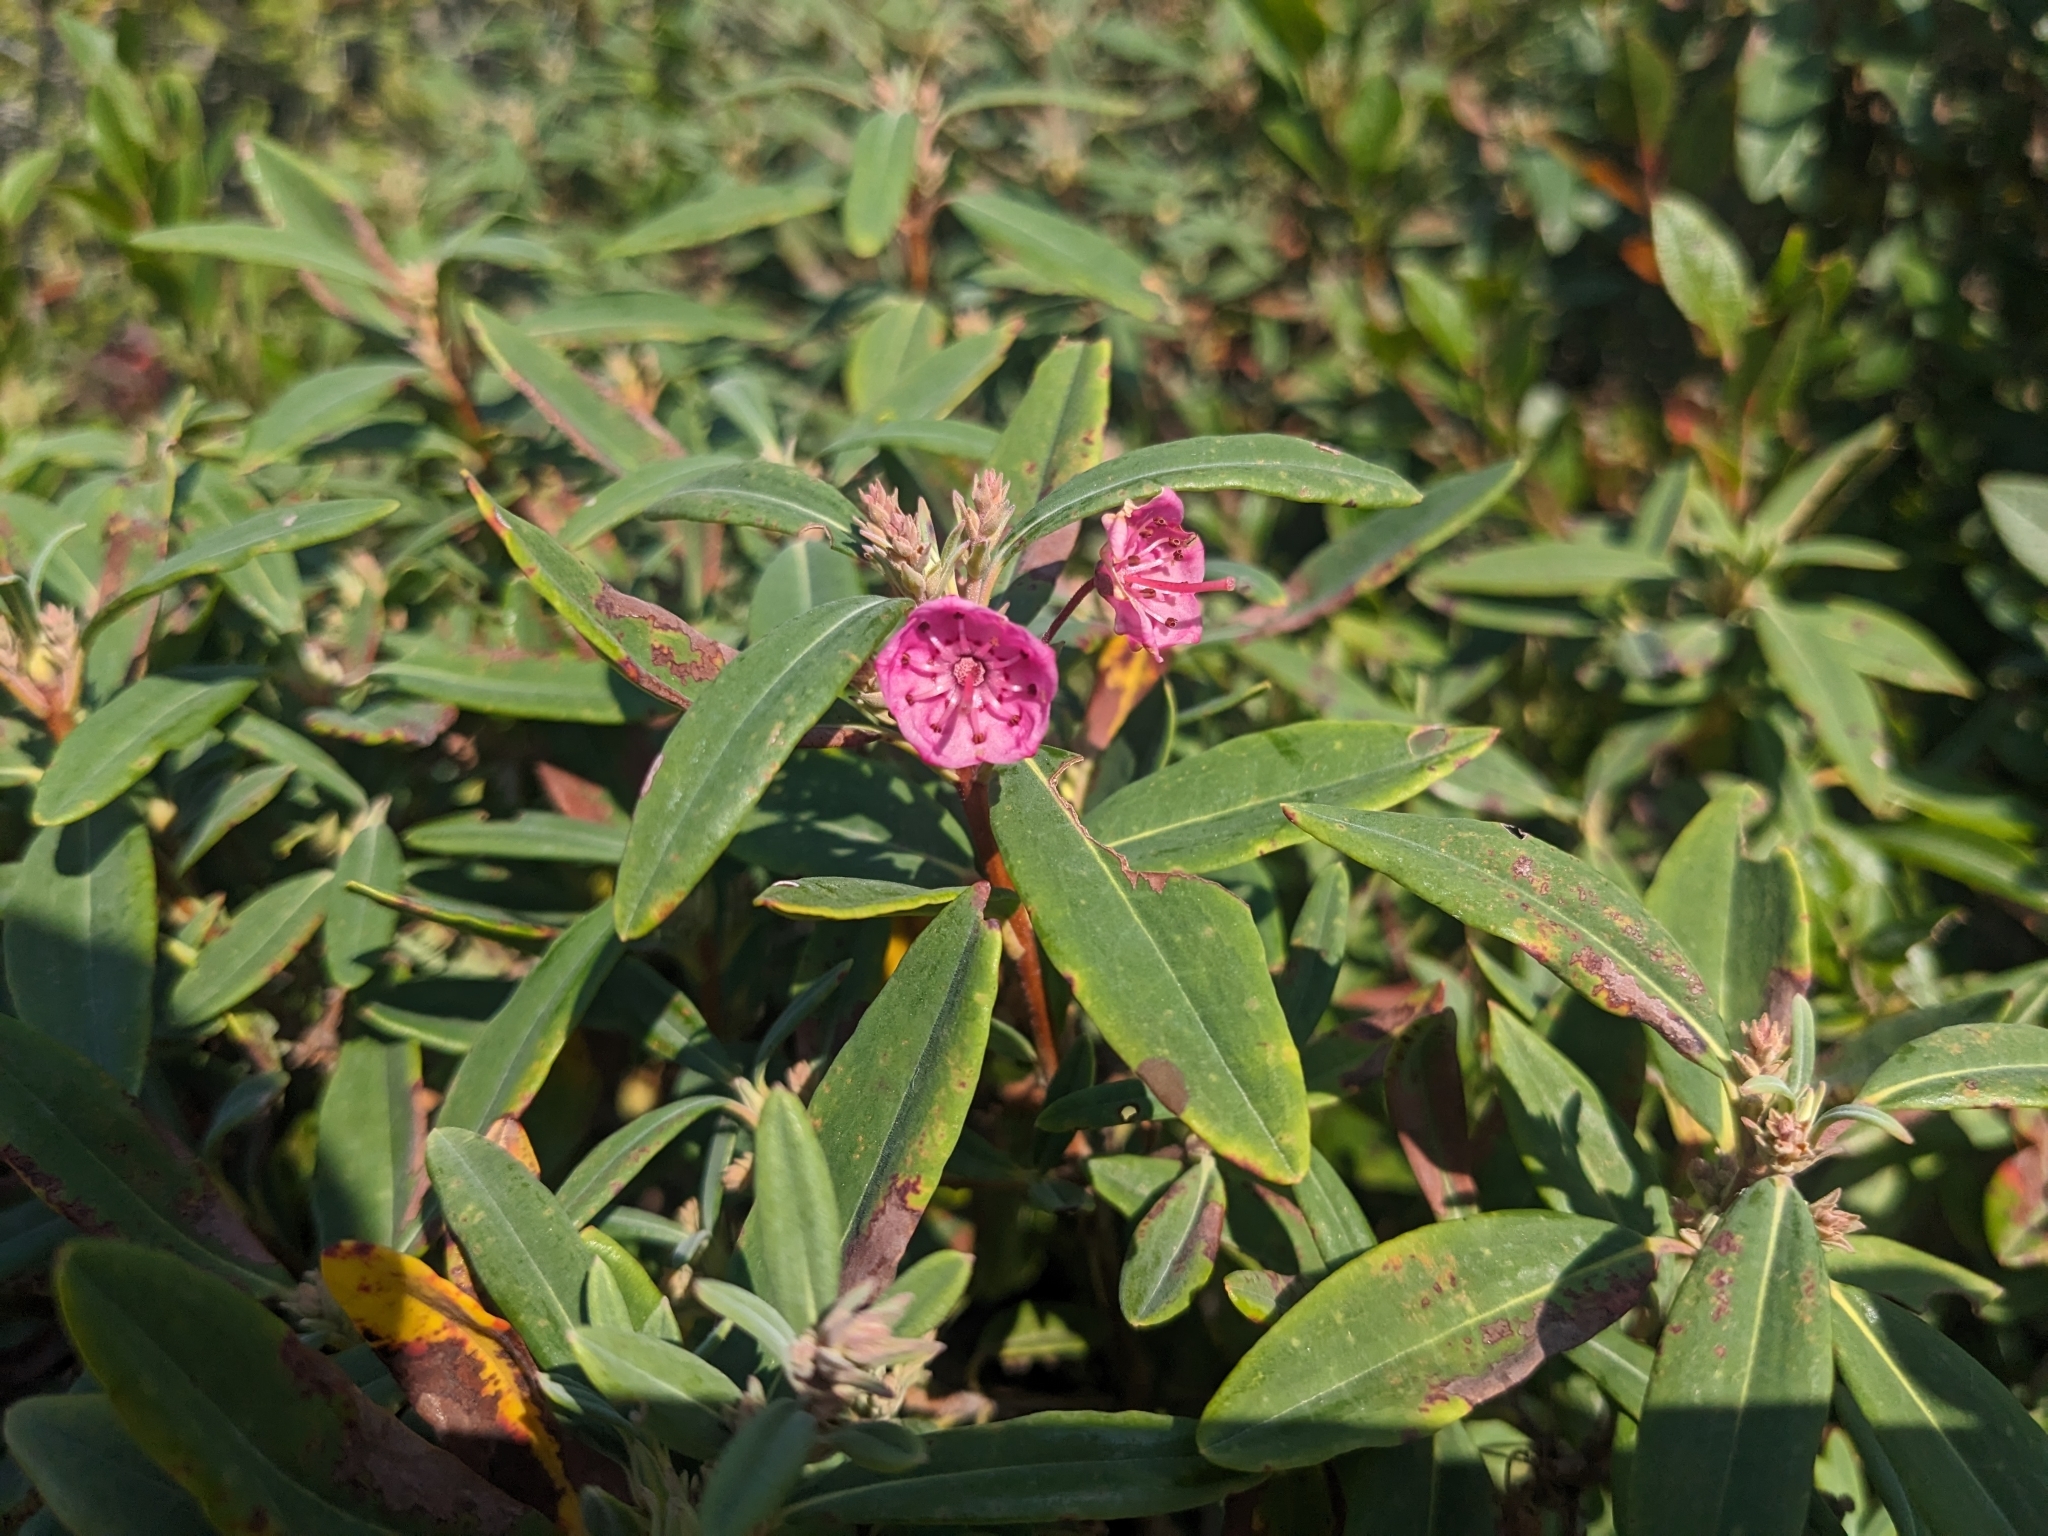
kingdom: Plantae
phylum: Tracheophyta
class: Magnoliopsida
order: Ericales
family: Ericaceae
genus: Kalmia
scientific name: Kalmia angustifolia
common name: Sheep-laurel
